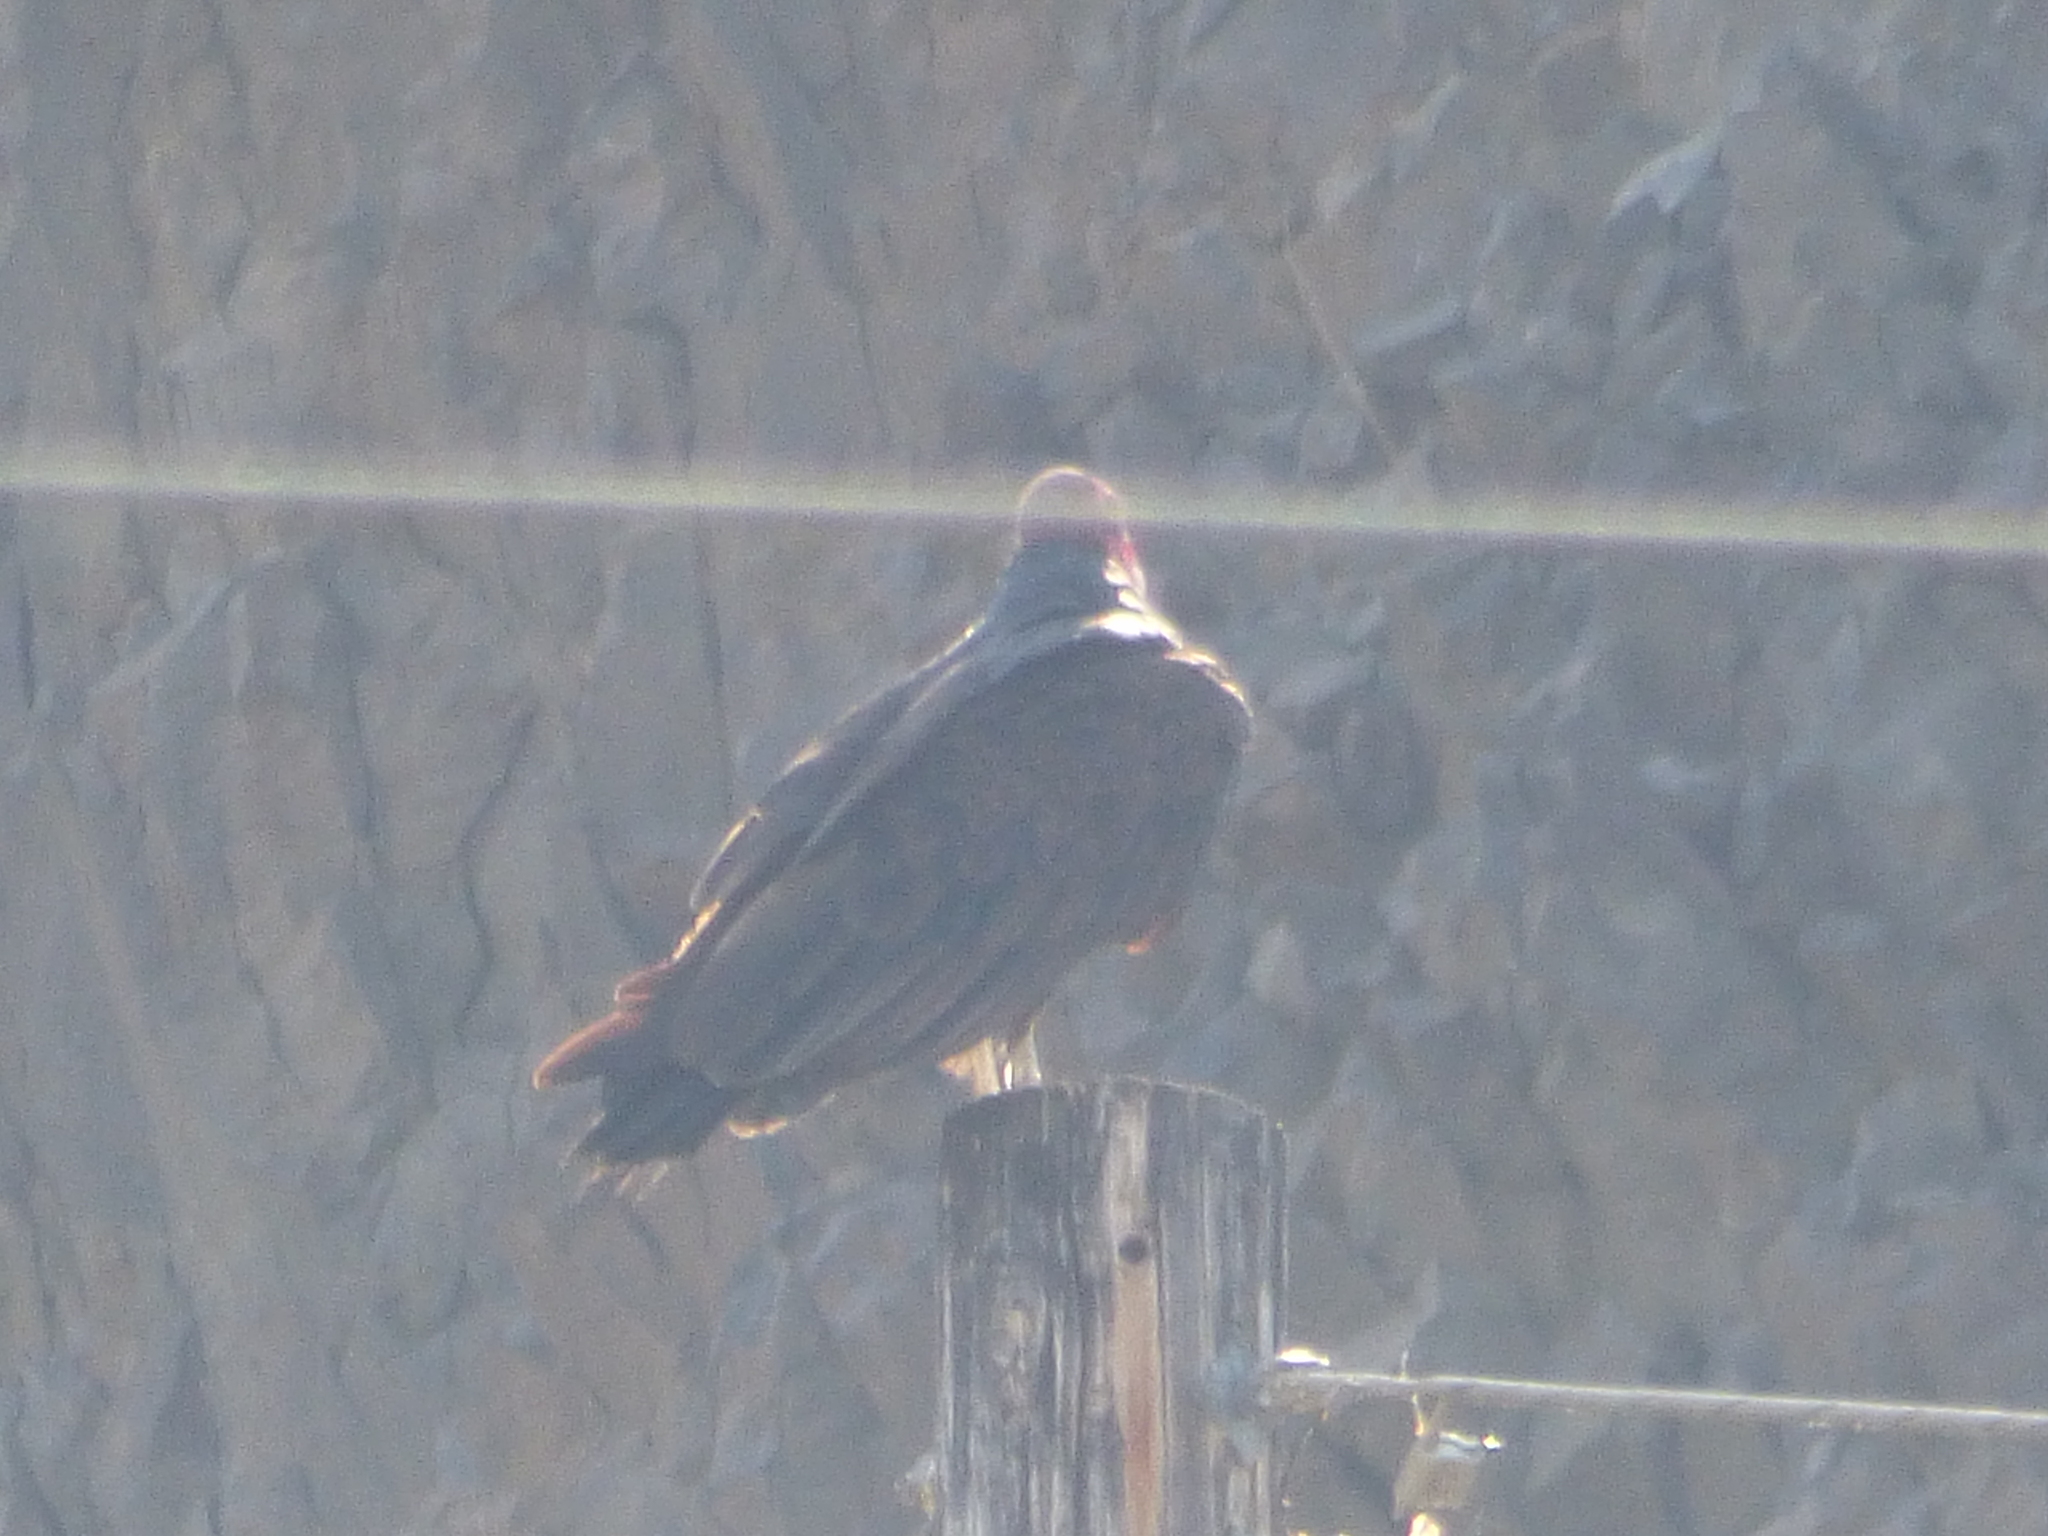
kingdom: Animalia
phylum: Chordata
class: Aves
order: Accipitriformes
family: Cathartidae
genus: Cathartes
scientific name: Cathartes aura
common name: Turkey vulture
